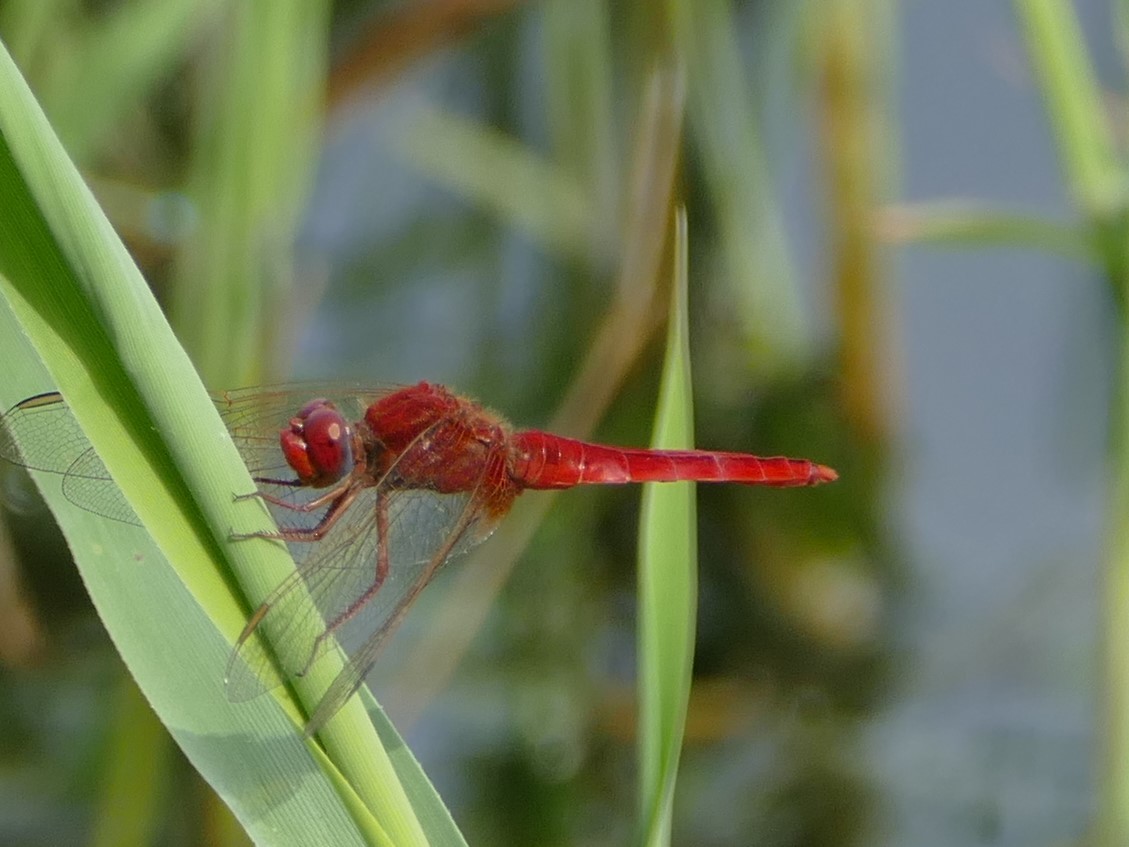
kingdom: Animalia
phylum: Arthropoda
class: Insecta
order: Odonata
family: Libellulidae
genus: Crocothemis
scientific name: Crocothemis erythraea
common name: Scarlet dragonfly
